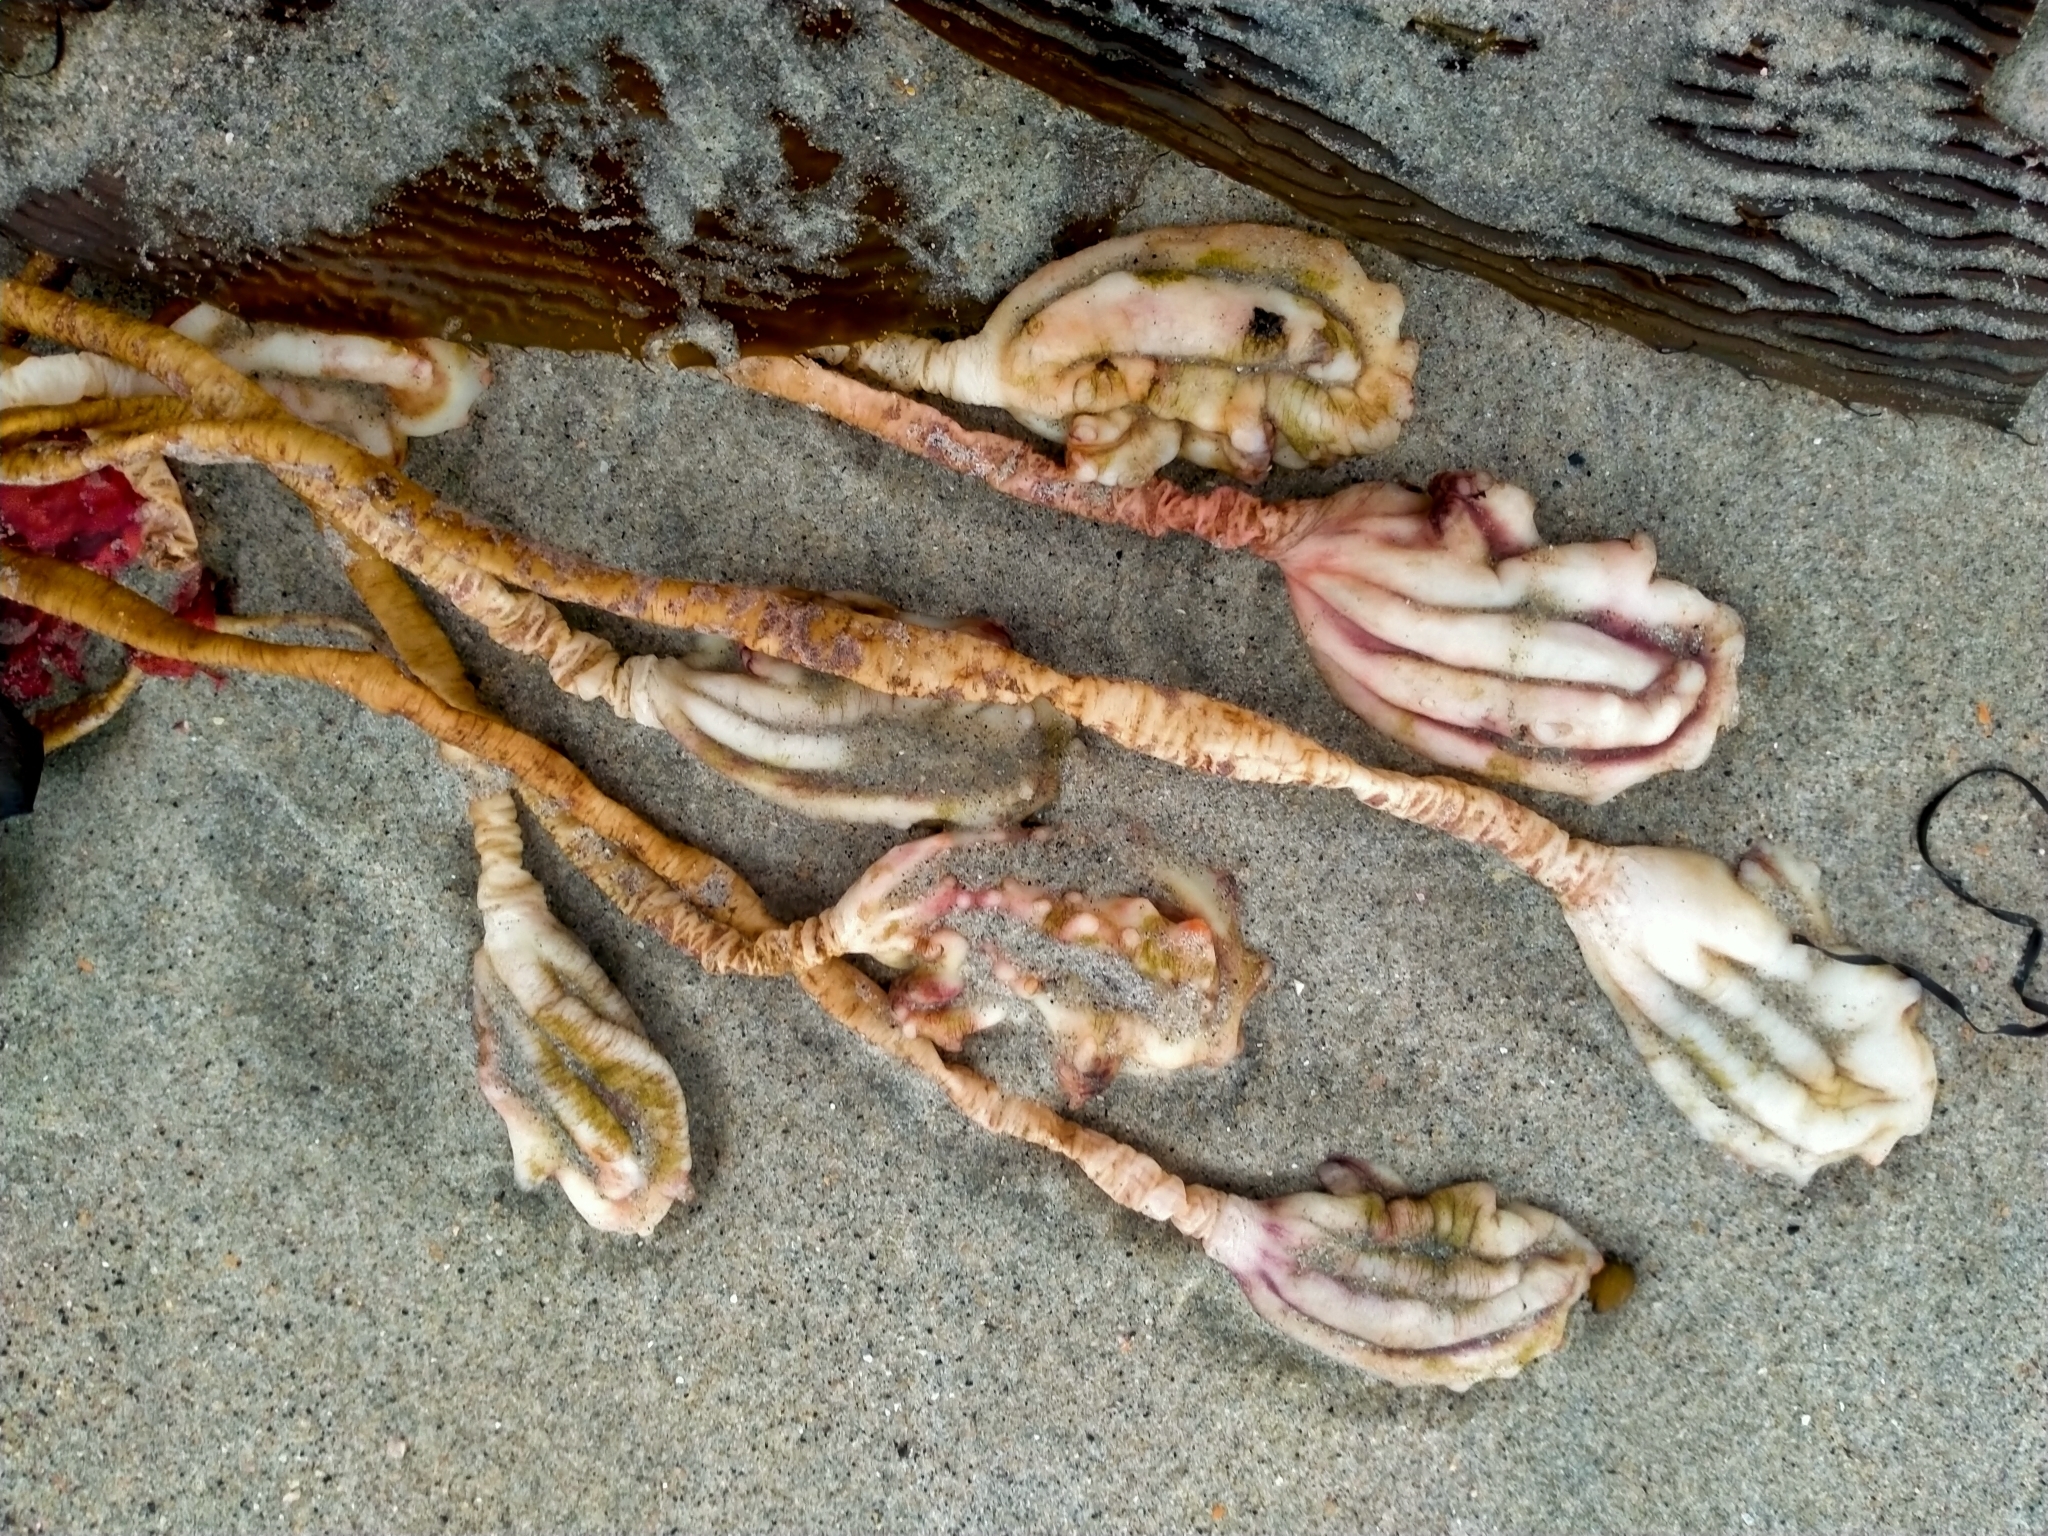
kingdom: Animalia
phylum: Chordata
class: Ascidiacea
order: Stolidobranchia
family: Pyuridae
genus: Pyura
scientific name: Pyura pachydermatina
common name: Sea tulip
